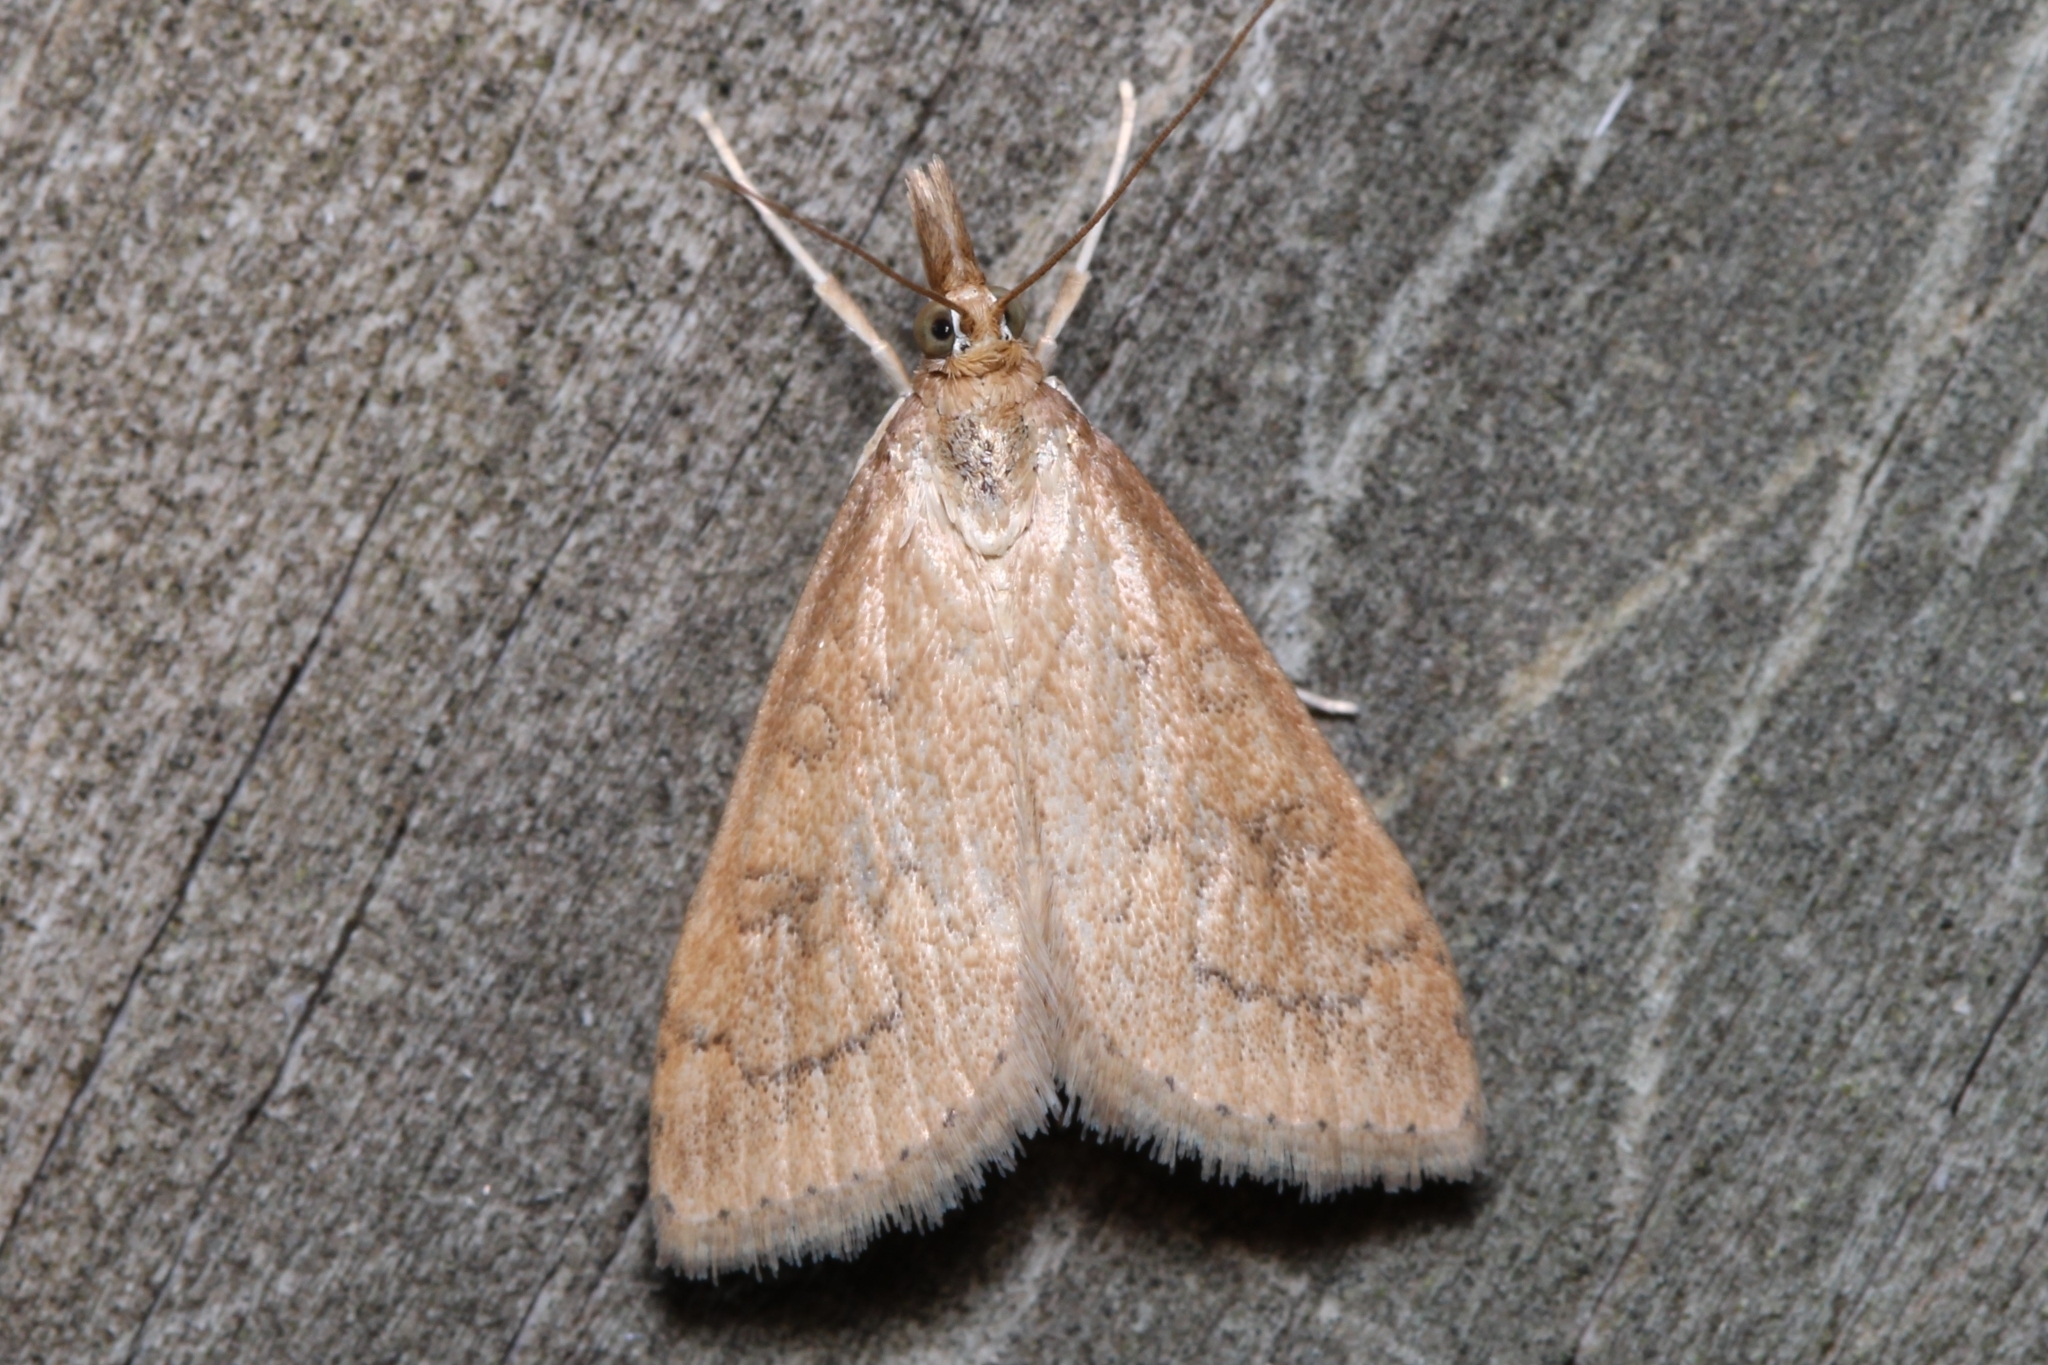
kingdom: Animalia
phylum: Arthropoda
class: Insecta
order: Lepidoptera
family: Crambidae
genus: Udea
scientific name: Udea rubigalis
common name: Celery leaftier moth
